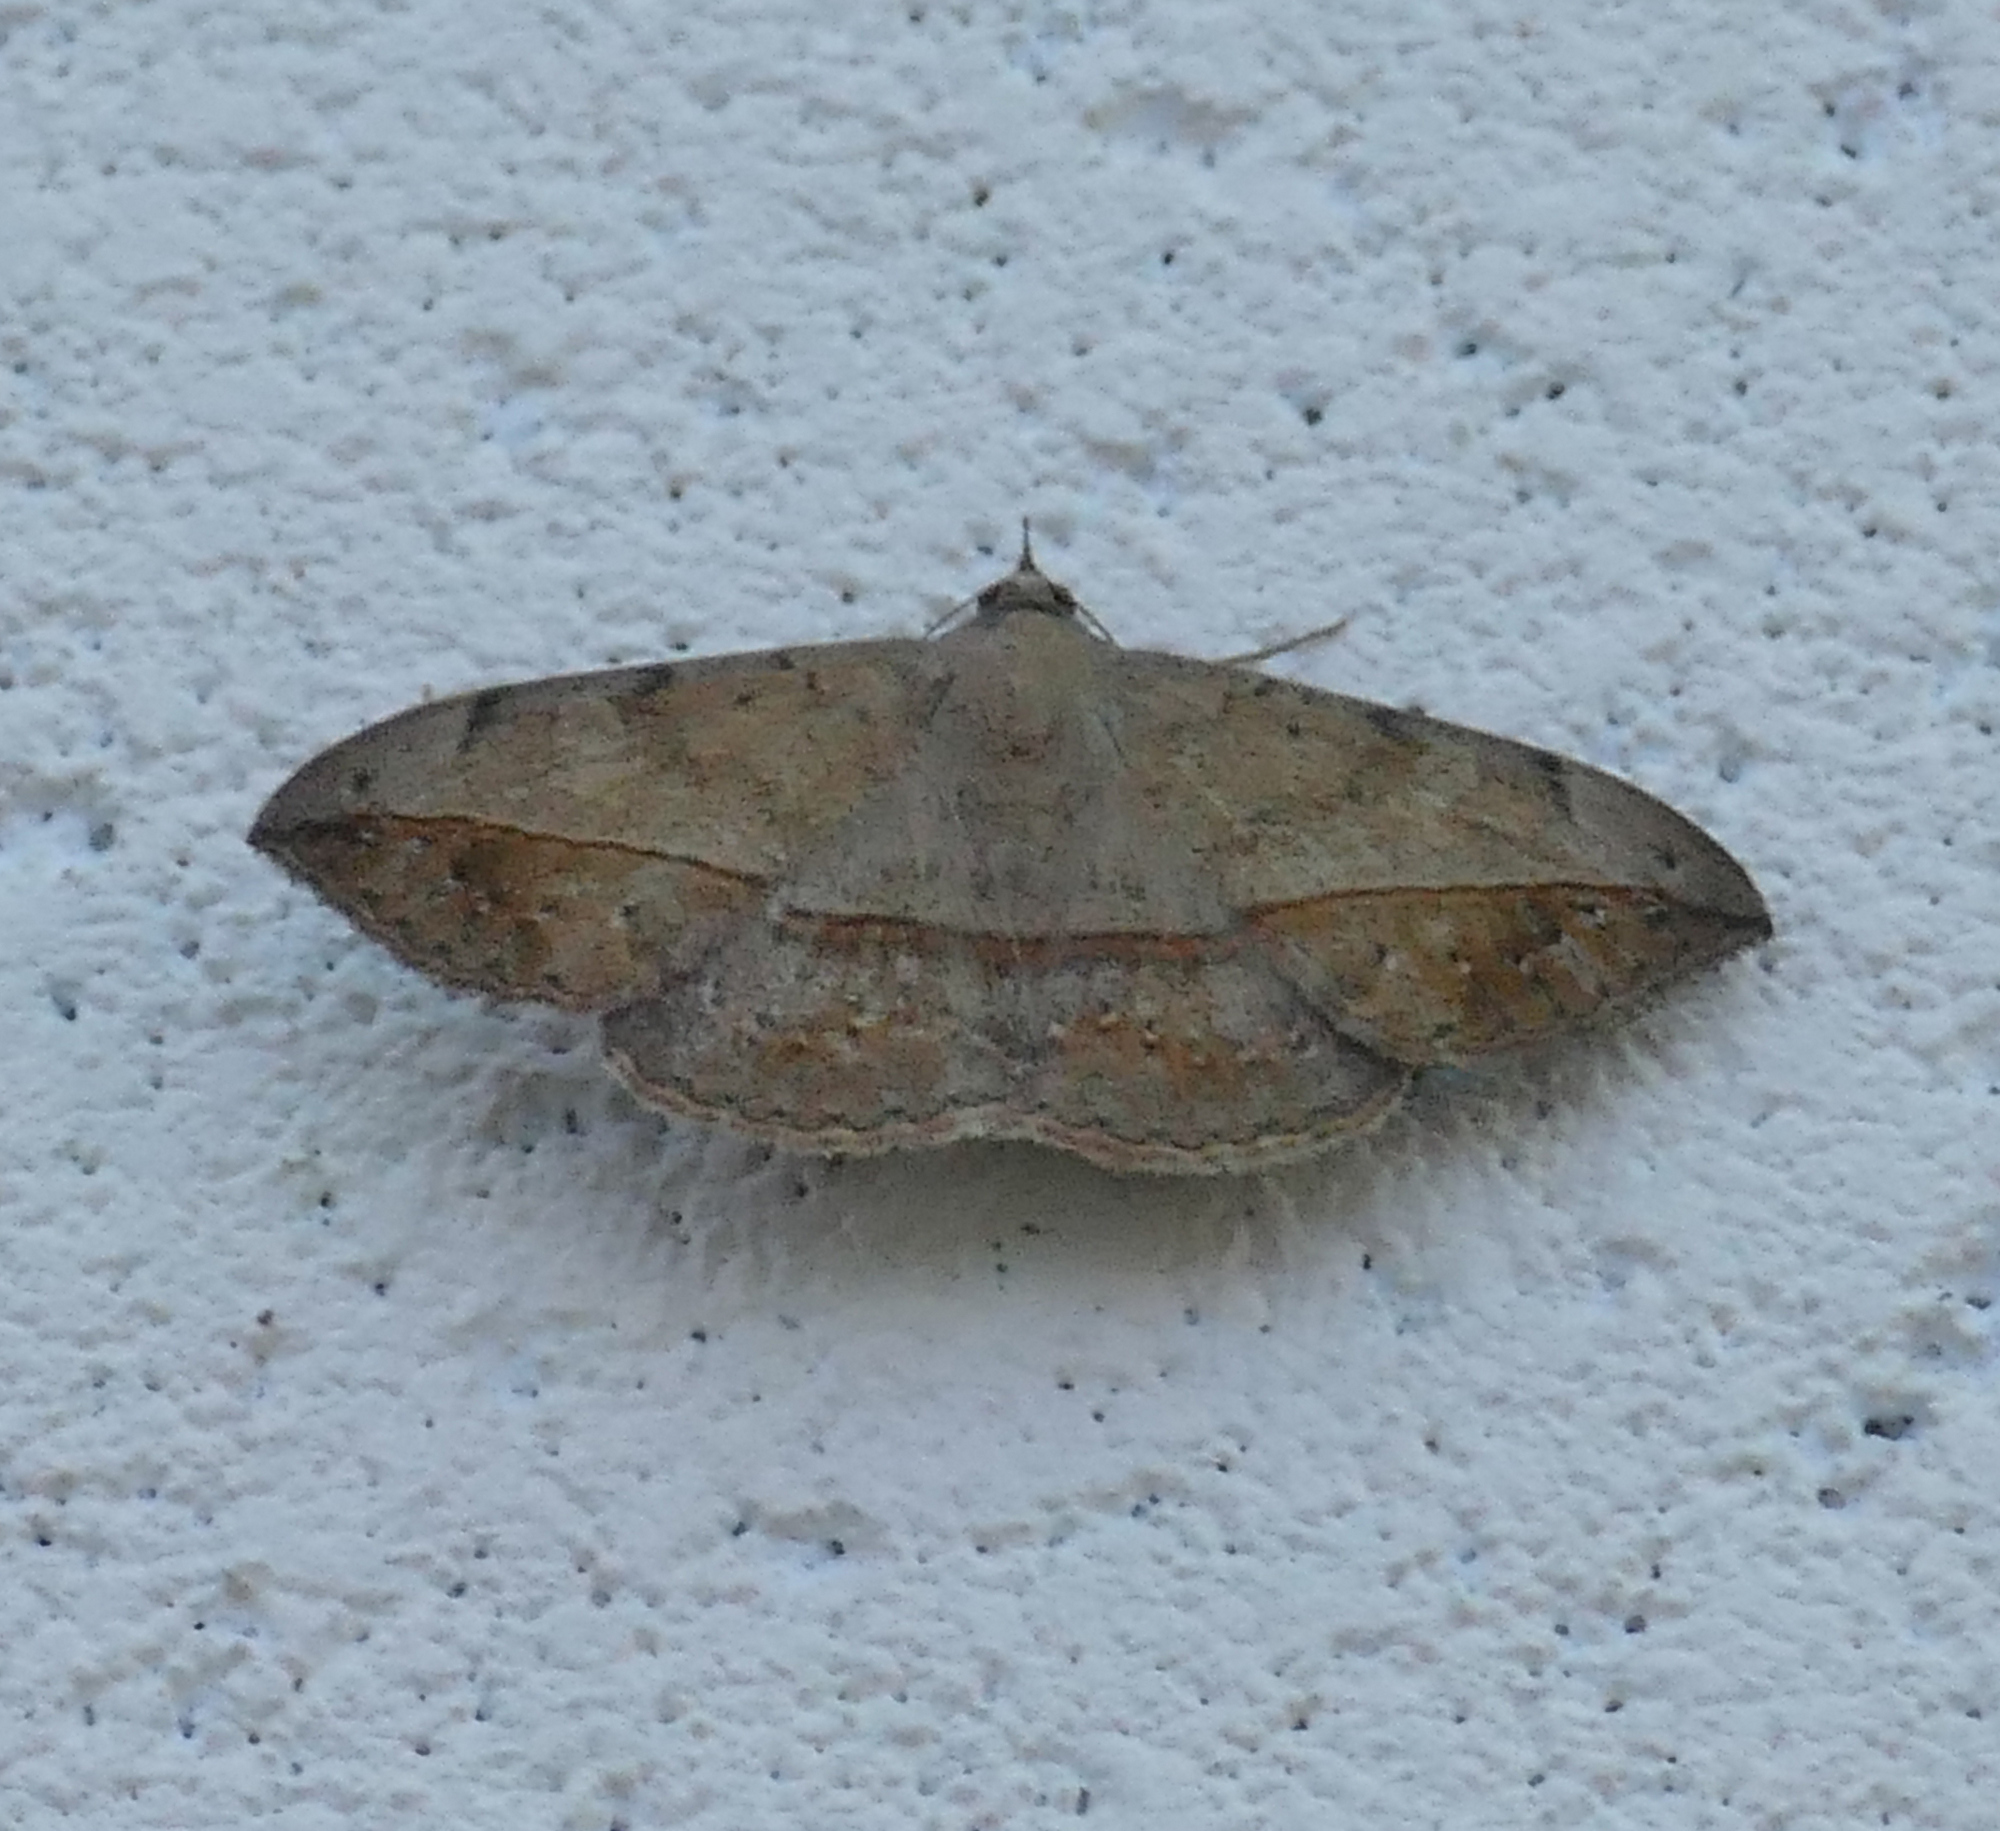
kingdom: Animalia
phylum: Arthropoda
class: Insecta
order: Lepidoptera
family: Erebidae
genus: Anticarsia
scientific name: Anticarsia gemmatalis
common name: Cutworm moth
